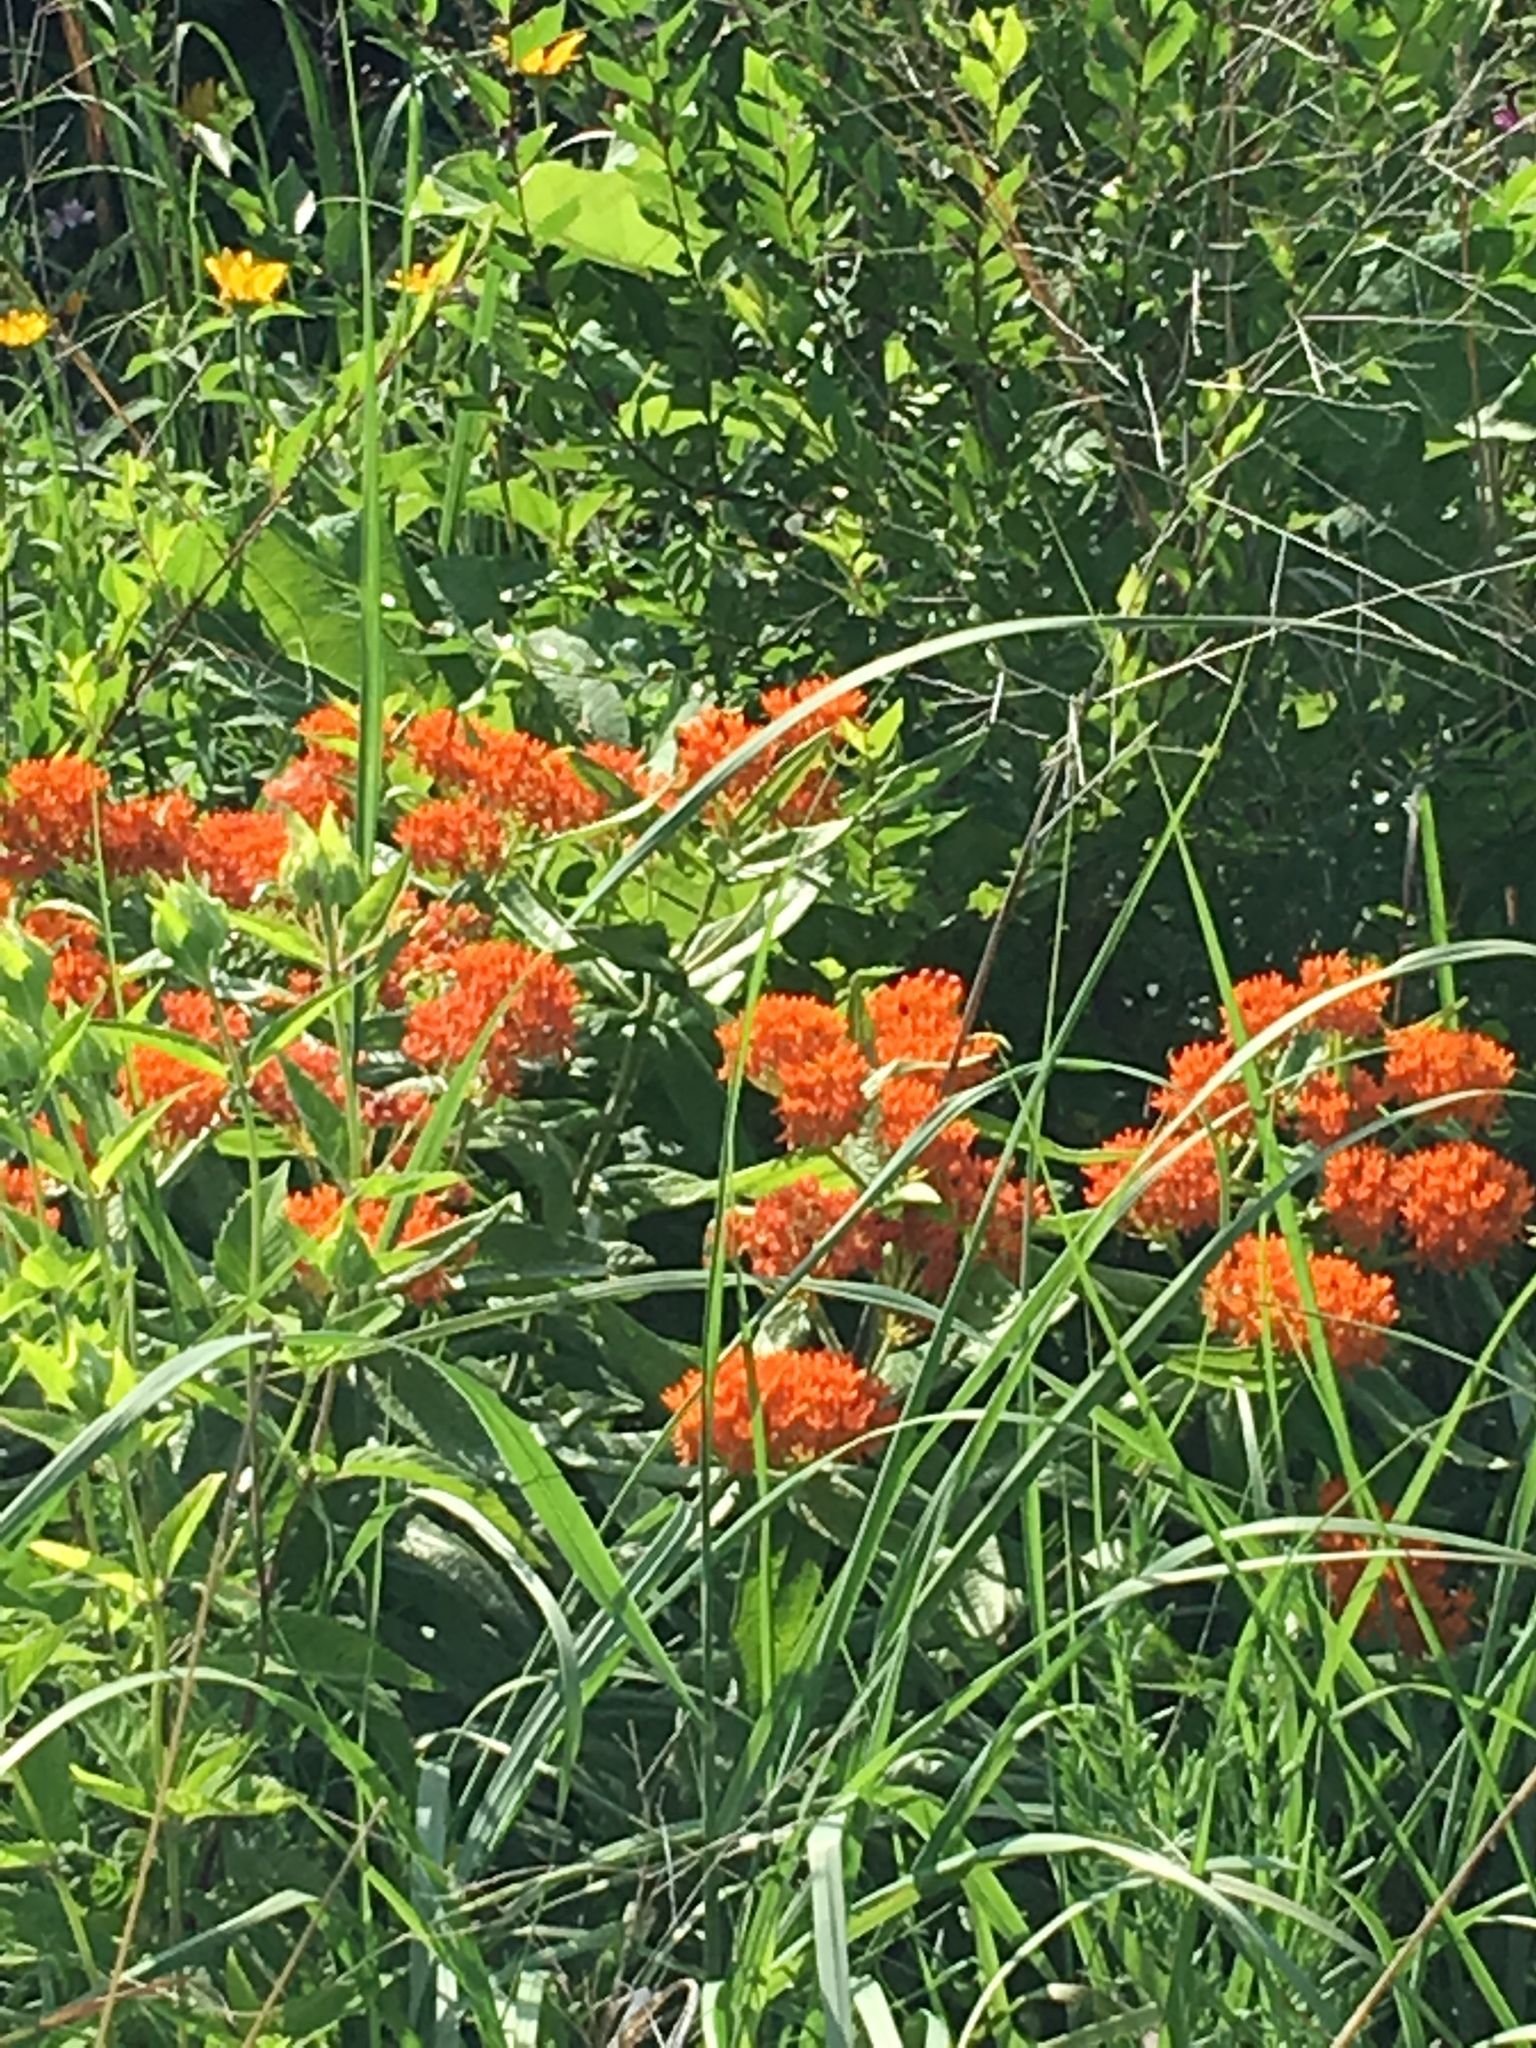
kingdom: Plantae
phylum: Tracheophyta
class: Magnoliopsida
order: Gentianales
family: Apocynaceae
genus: Asclepias
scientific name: Asclepias tuberosa
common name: Butterfly milkweed
